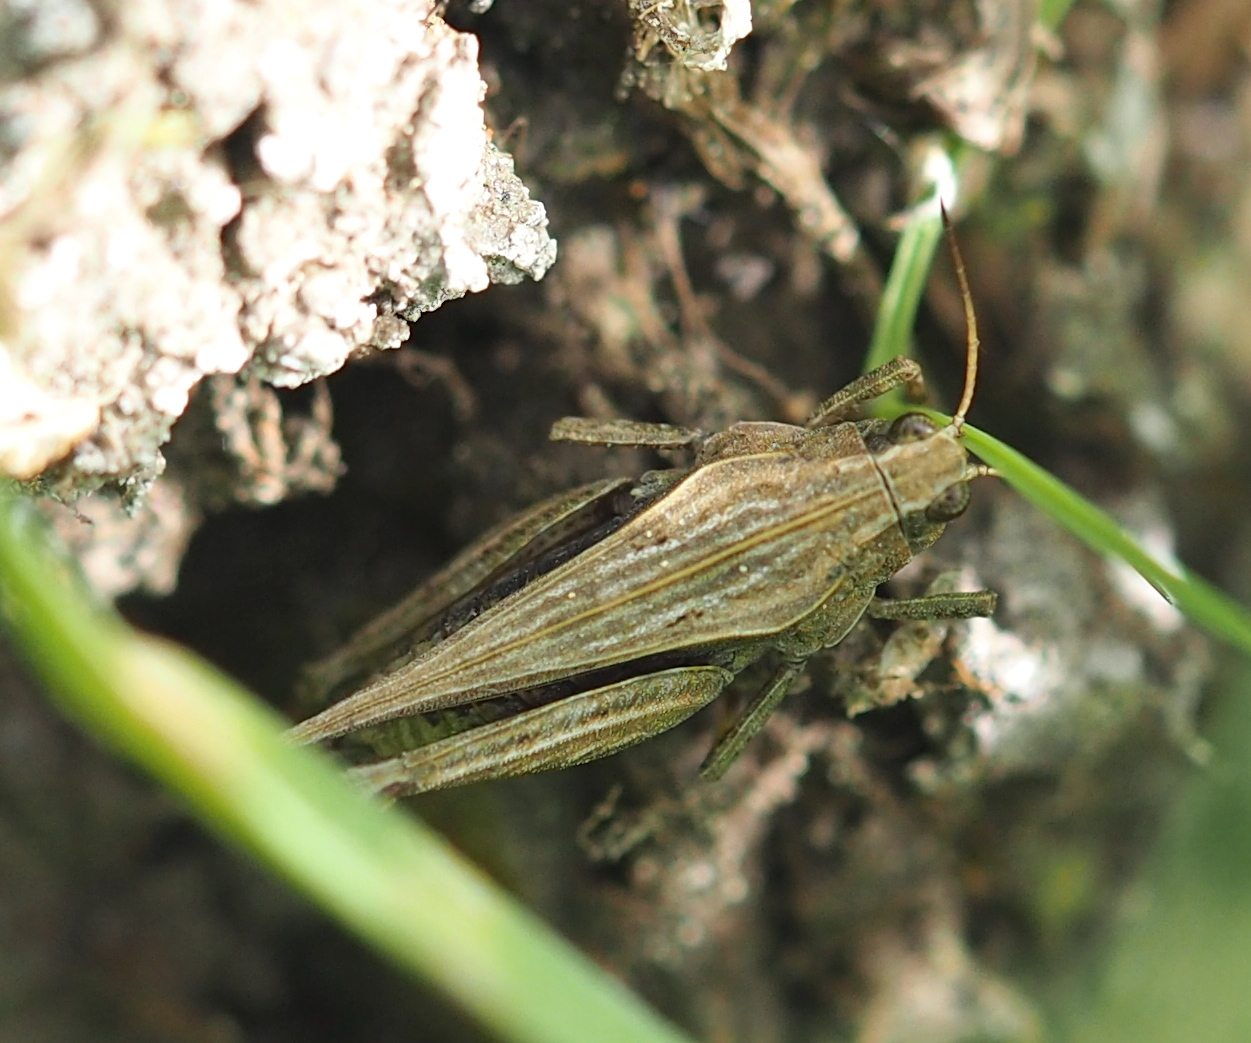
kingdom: Animalia
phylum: Arthropoda
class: Insecta
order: Orthoptera
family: Tetrigidae
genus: Tetrix
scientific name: Tetrix subulata
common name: Slender ground-hopper
